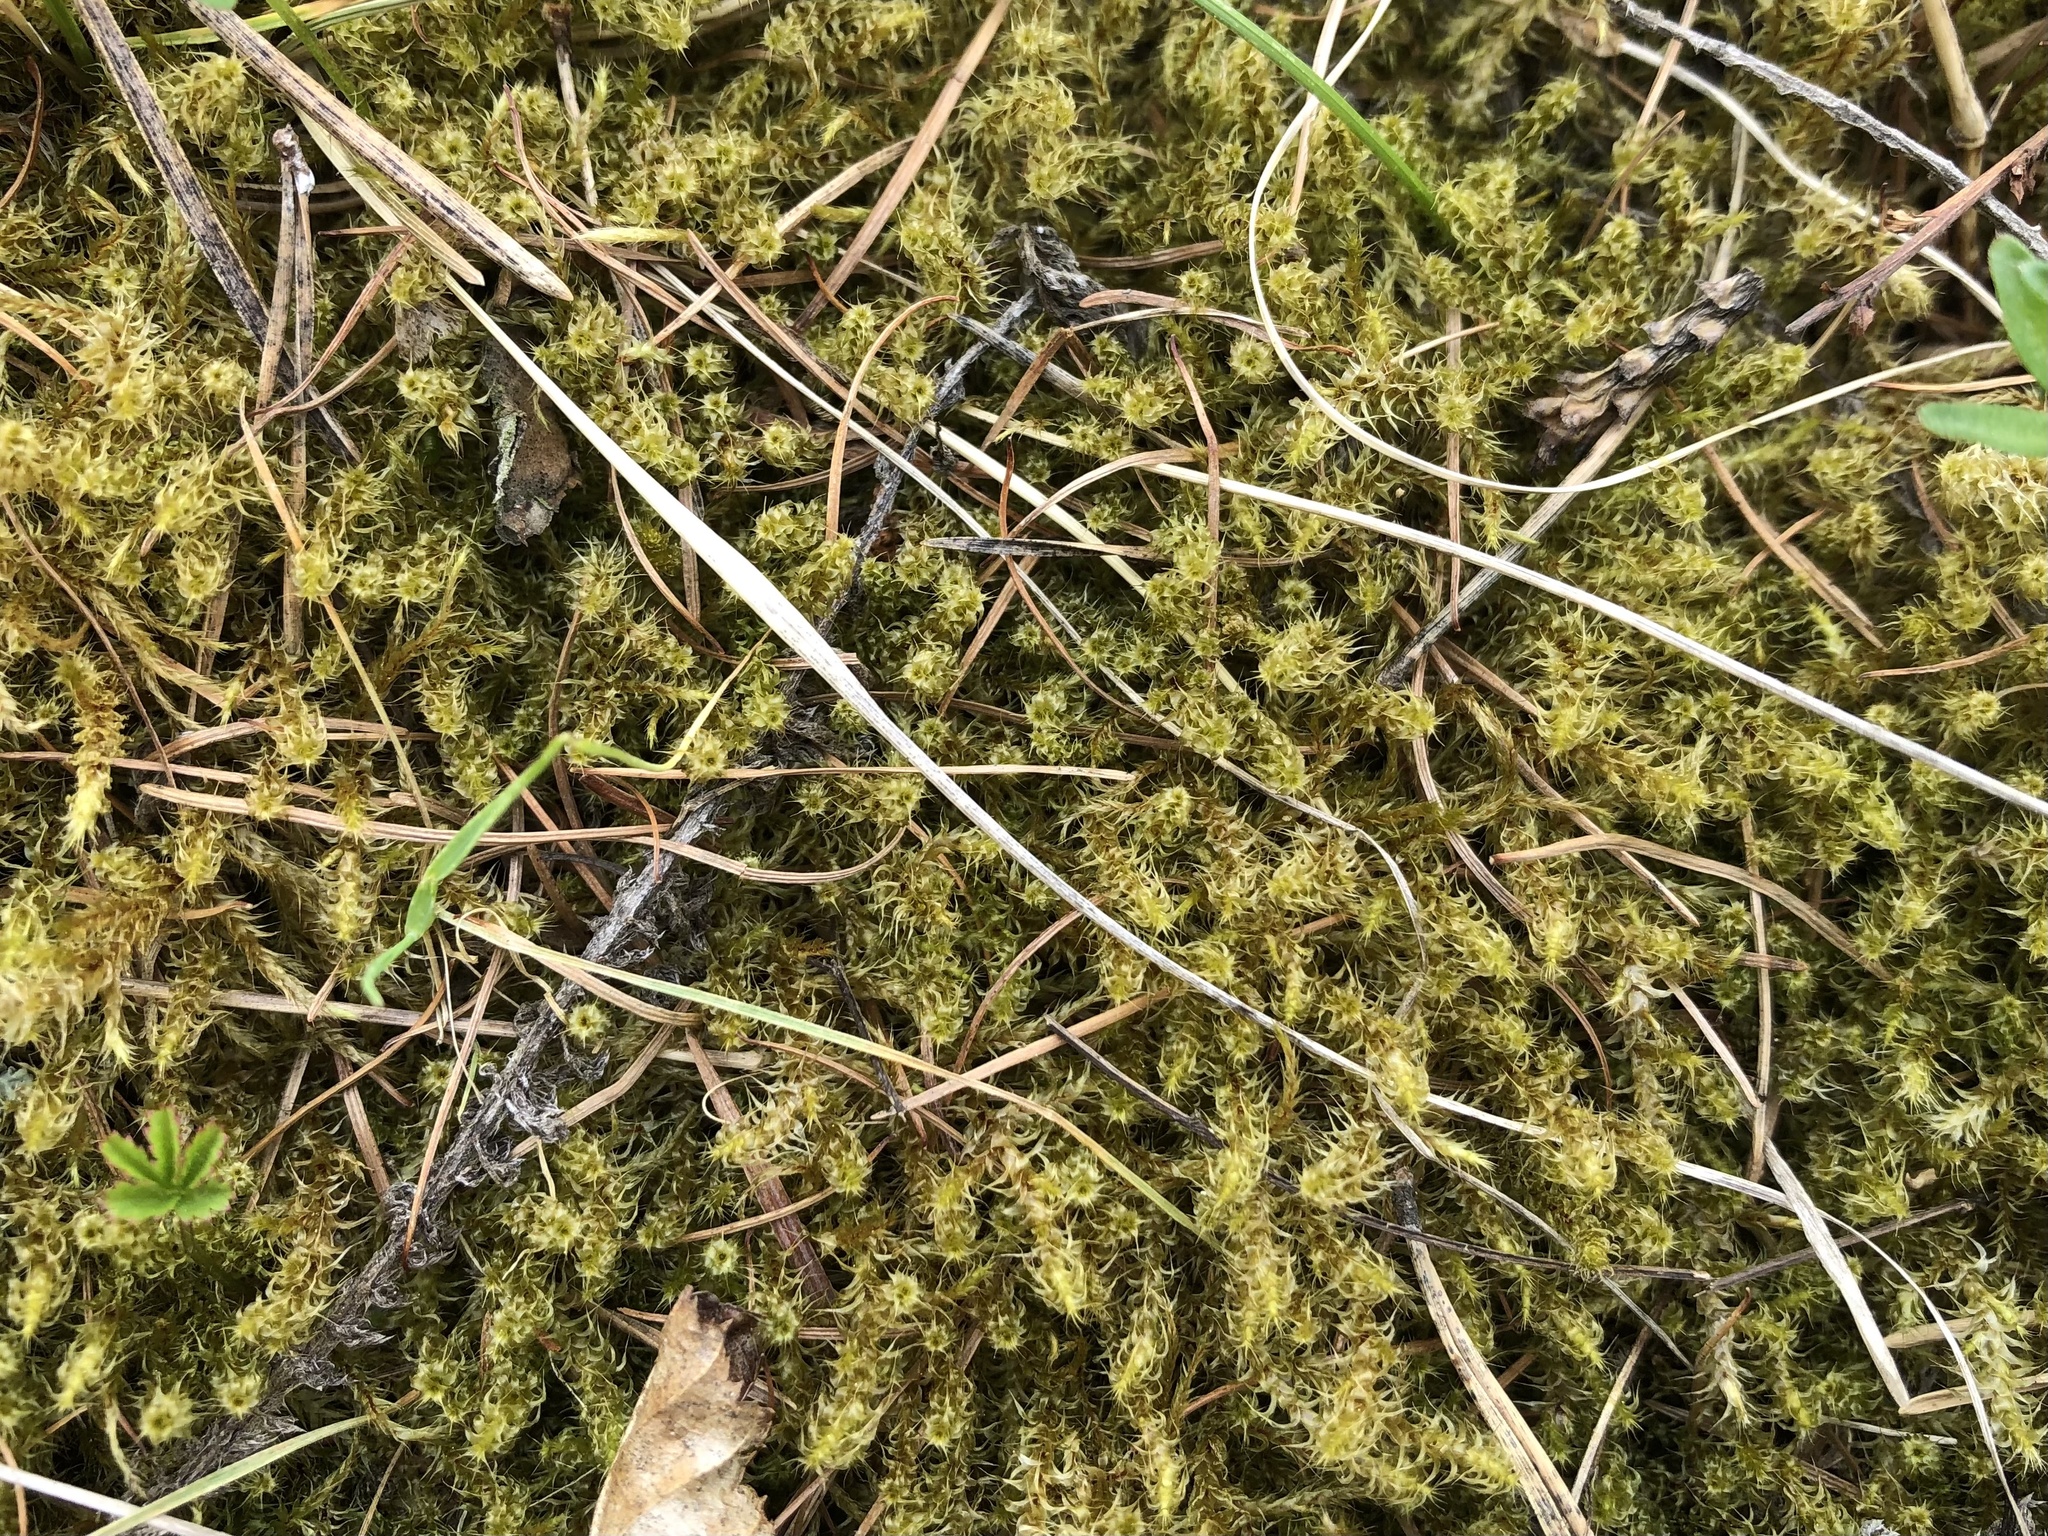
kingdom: Plantae
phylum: Bryophyta
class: Bryopsida
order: Hypnales
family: Hylocomiaceae
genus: Rhytidiadelphus
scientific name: Rhytidiadelphus squarrosus
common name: Springy turf-moss
